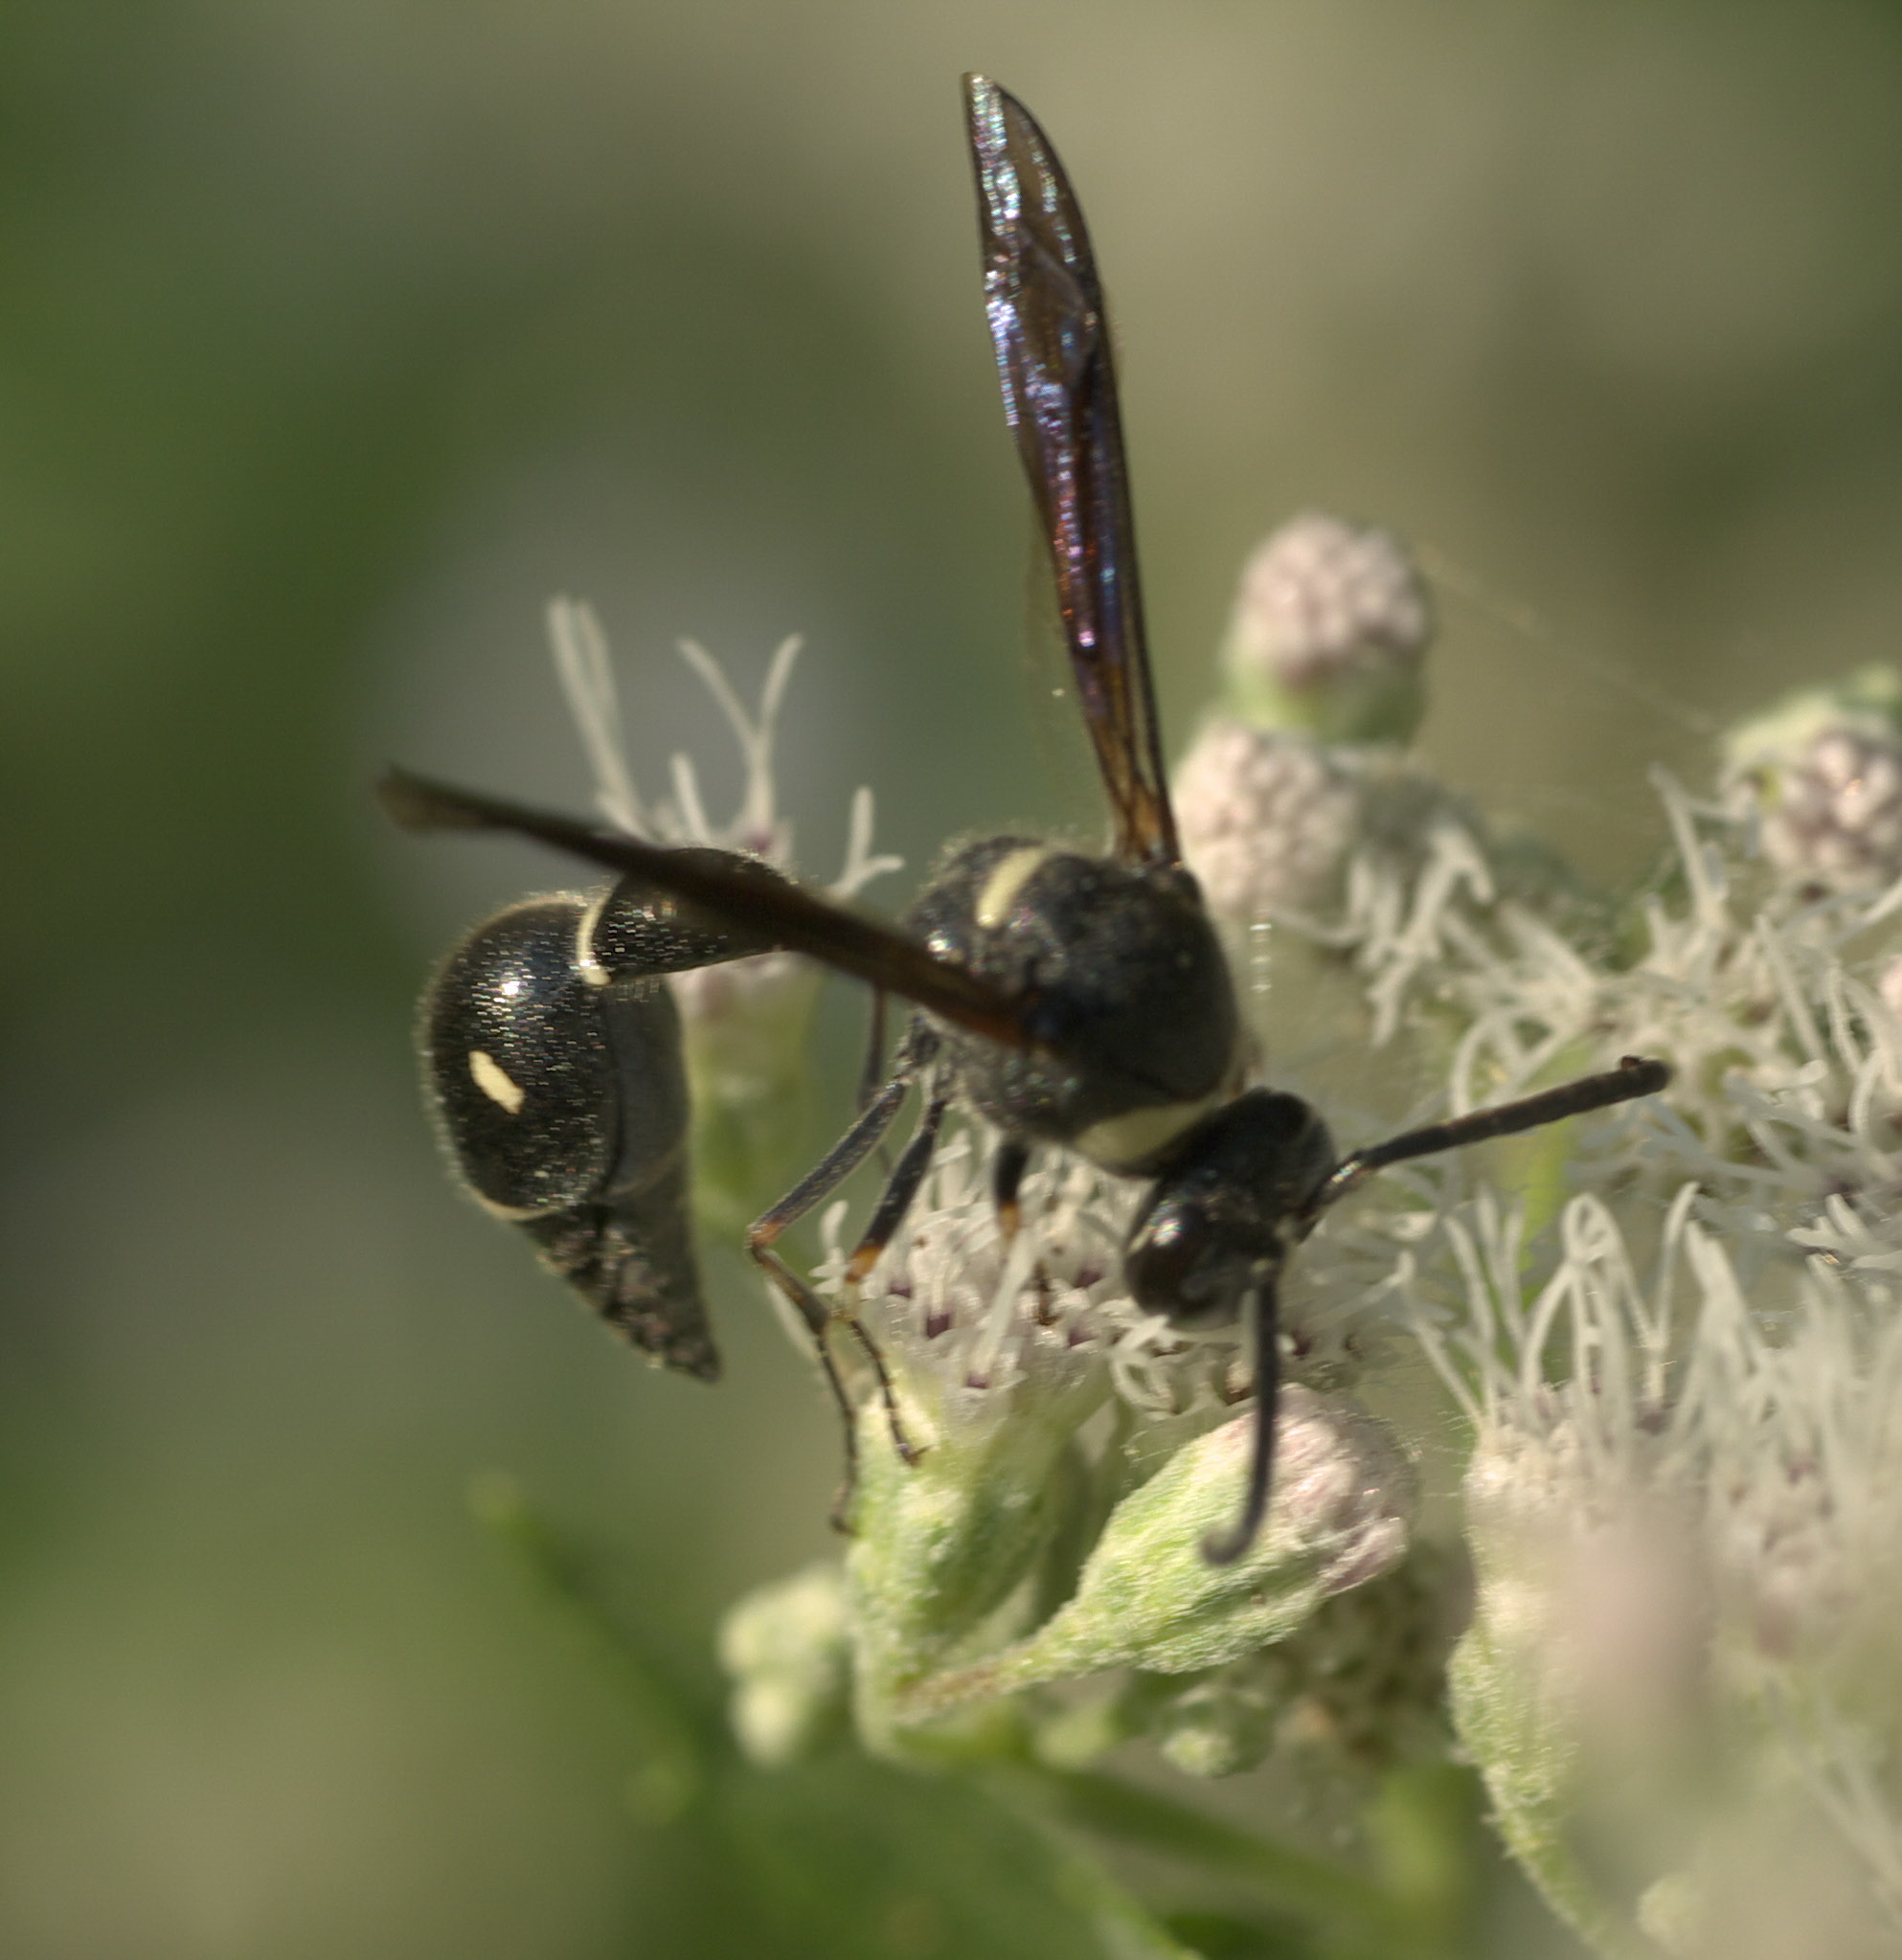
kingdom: Animalia
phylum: Arthropoda
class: Insecta
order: Hymenoptera
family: Vespidae
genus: Eumenes
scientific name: Eumenes fraternus
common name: Fraternal potter wasp
